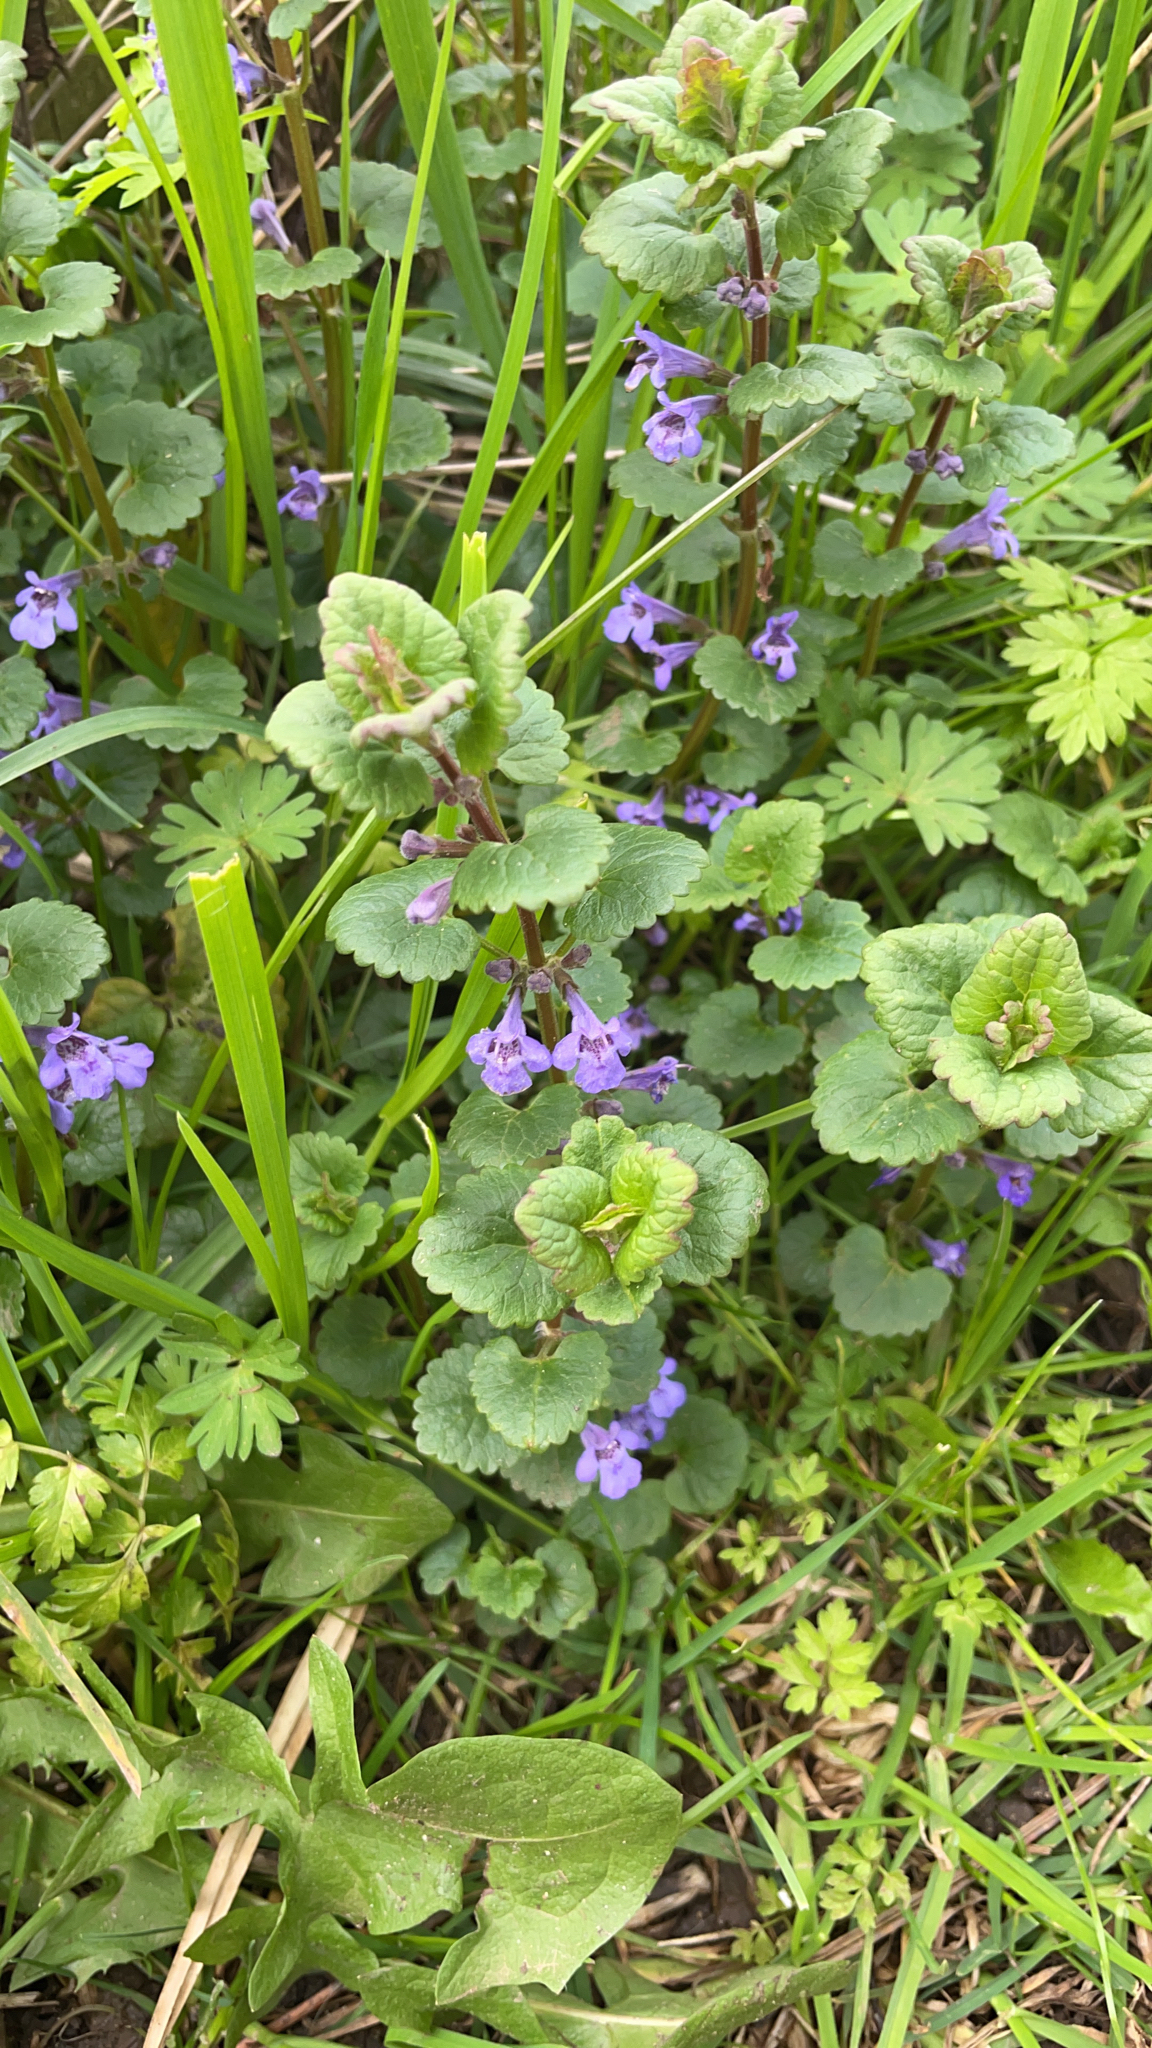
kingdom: Plantae
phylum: Tracheophyta
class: Magnoliopsida
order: Lamiales
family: Lamiaceae
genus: Glechoma
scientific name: Glechoma hederacea
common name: Ground ivy
